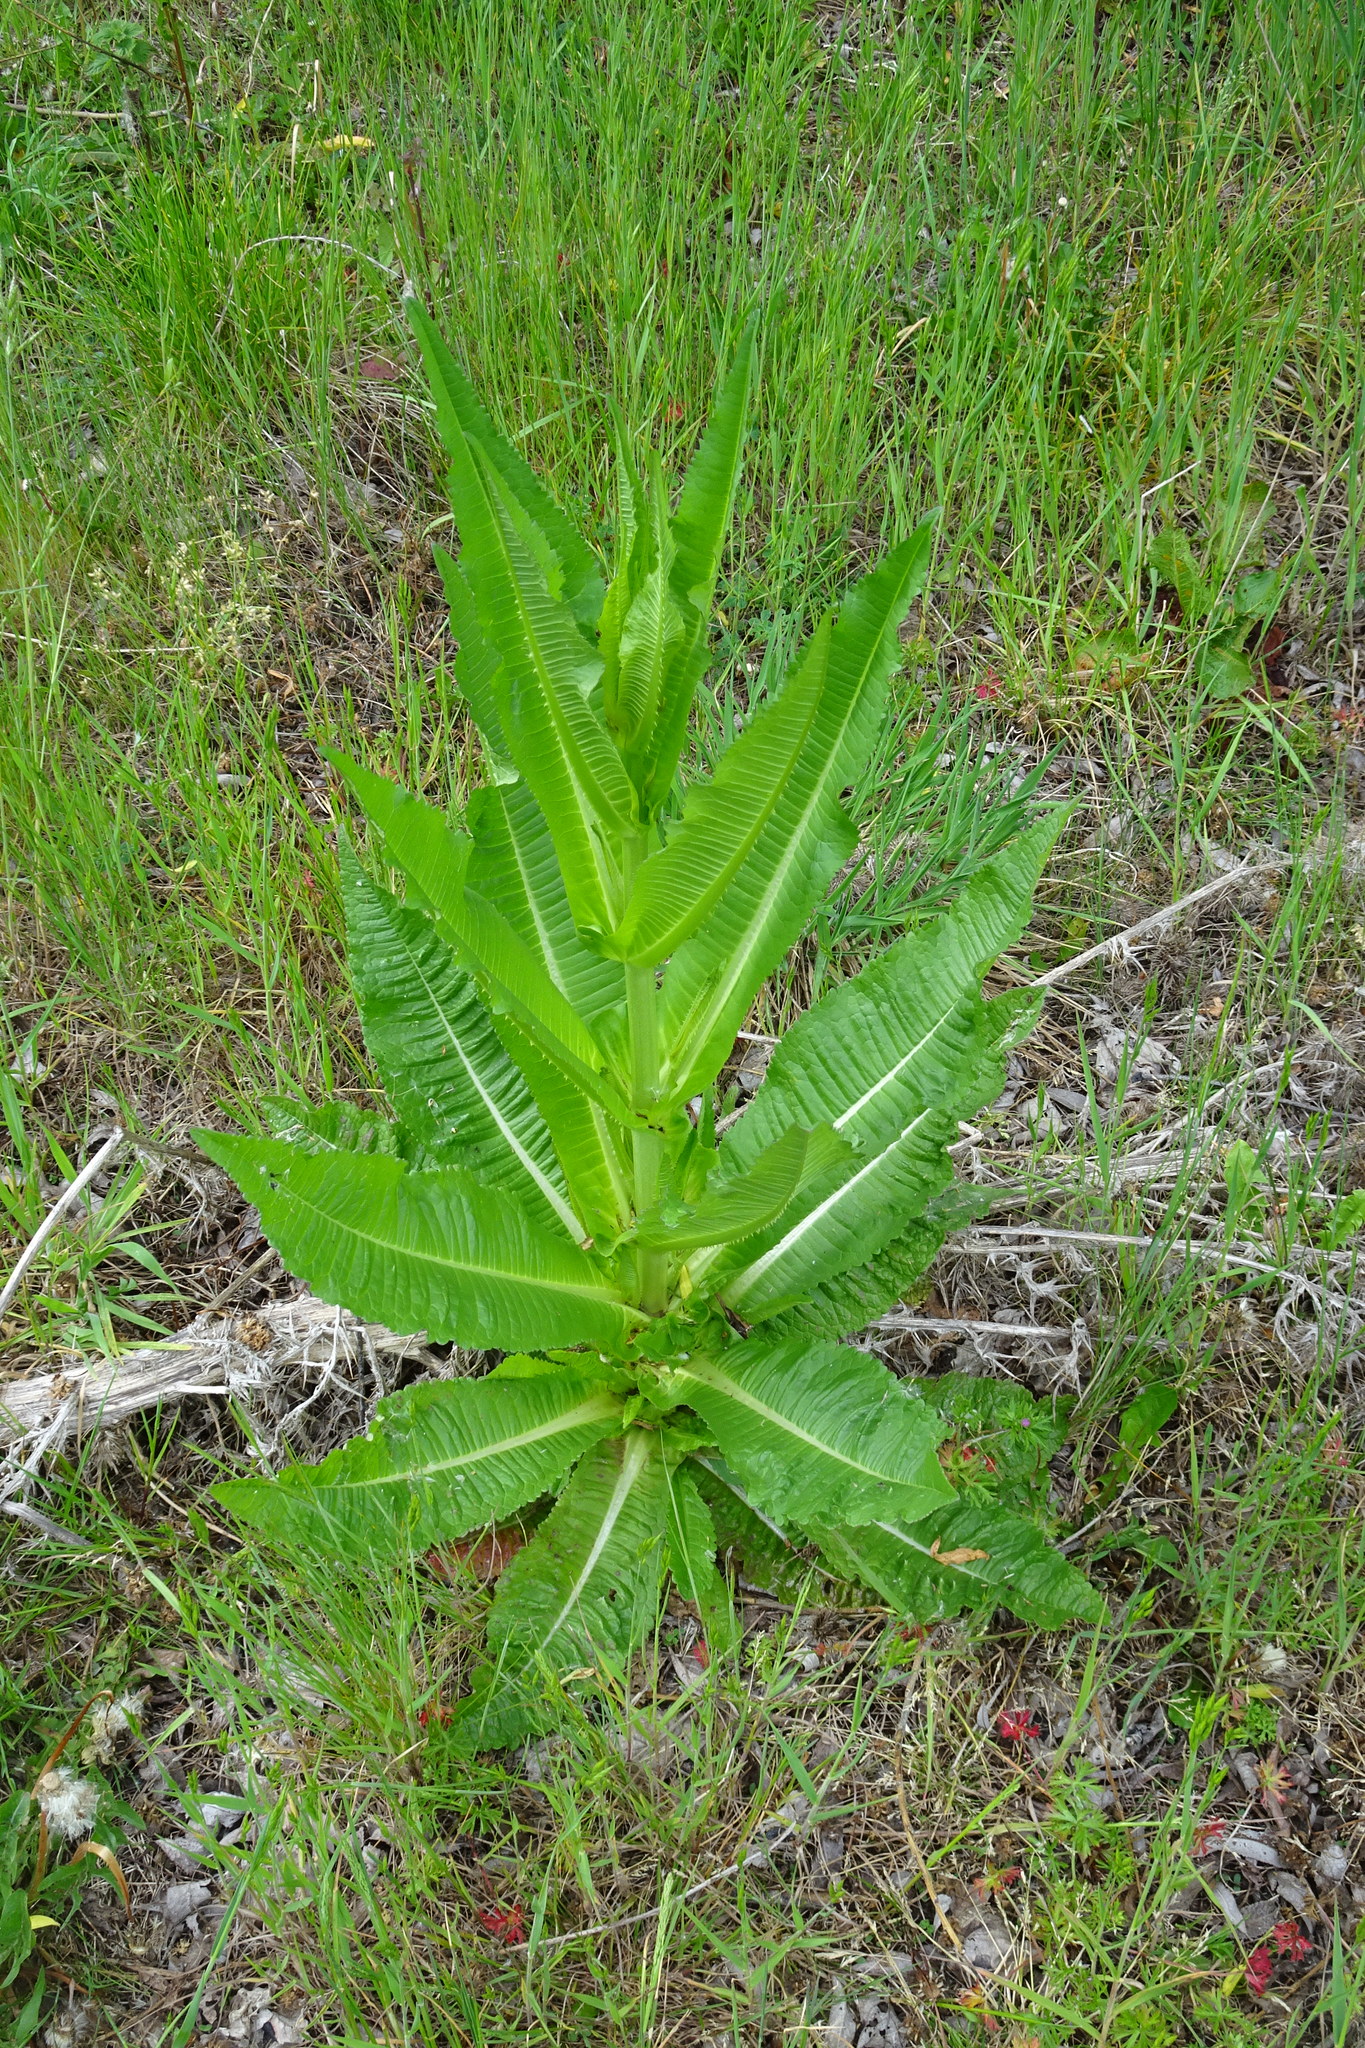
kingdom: Plantae
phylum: Tracheophyta
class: Magnoliopsida
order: Dipsacales
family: Caprifoliaceae
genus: Dipsacus
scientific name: Dipsacus fullonum
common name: Teasel
